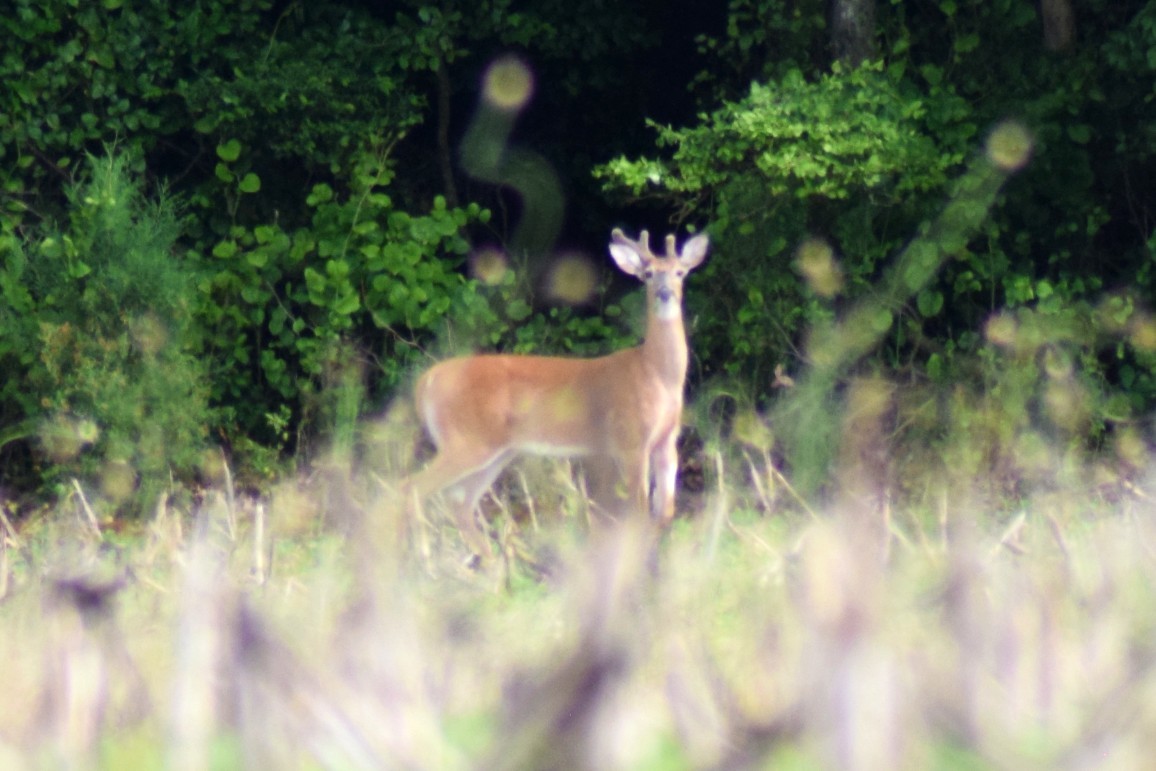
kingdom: Animalia
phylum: Chordata
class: Mammalia
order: Artiodactyla
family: Cervidae
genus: Odocoileus
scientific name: Odocoileus virginianus
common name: White-tailed deer
